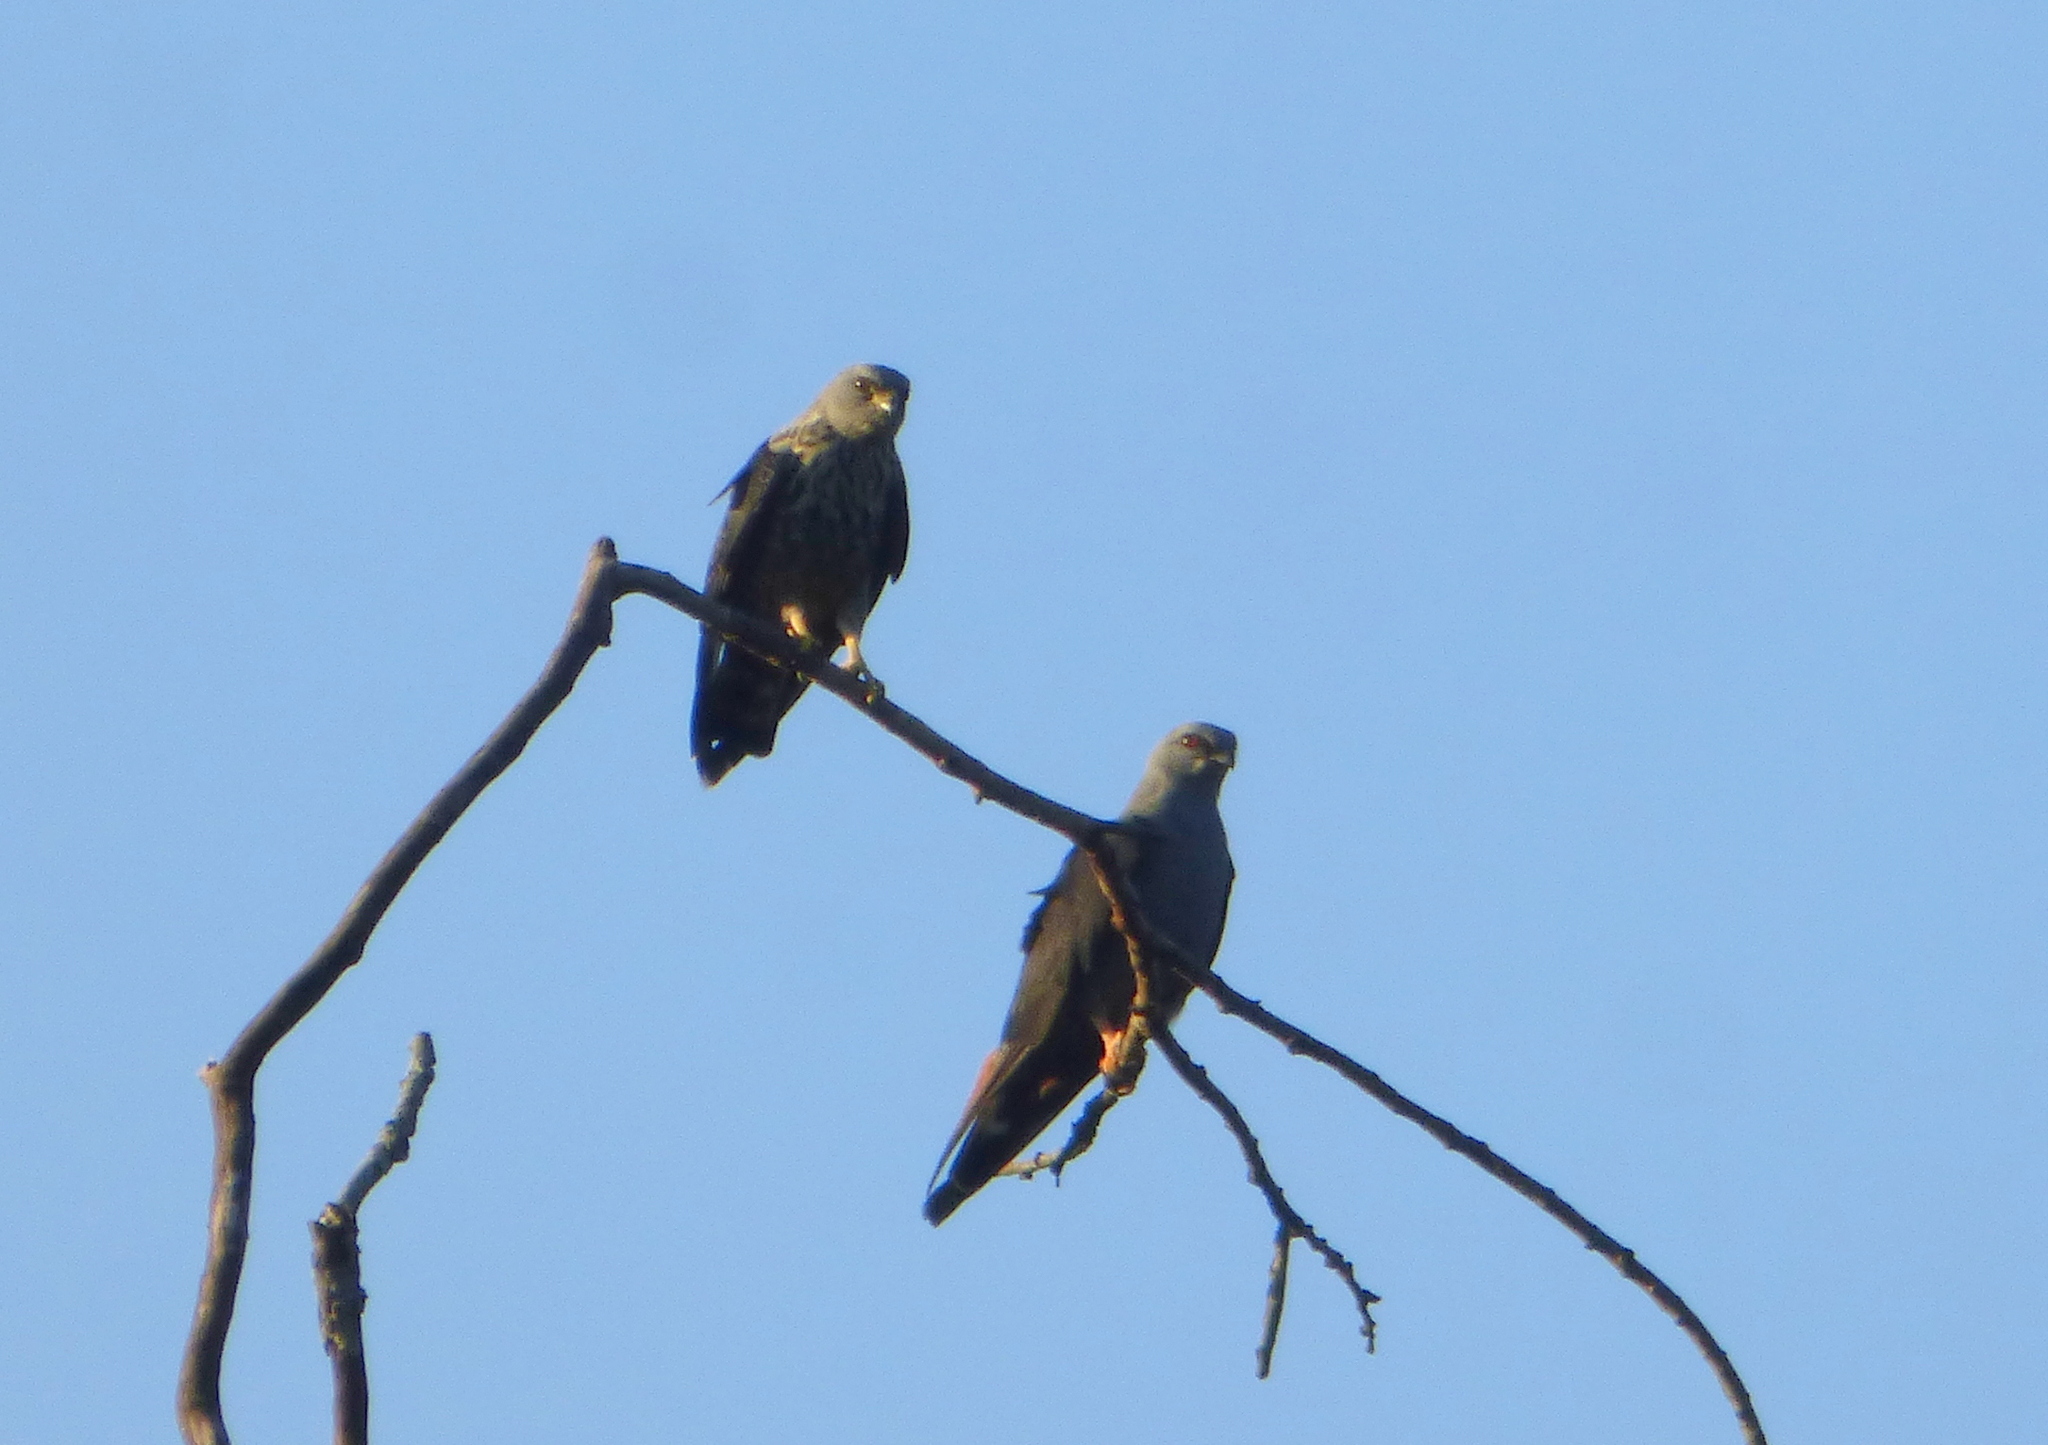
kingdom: Animalia
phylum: Chordata
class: Aves
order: Accipitriformes
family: Accipitridae
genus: Ictinia
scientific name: Ictinia plumbea
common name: Plumbeous kite
